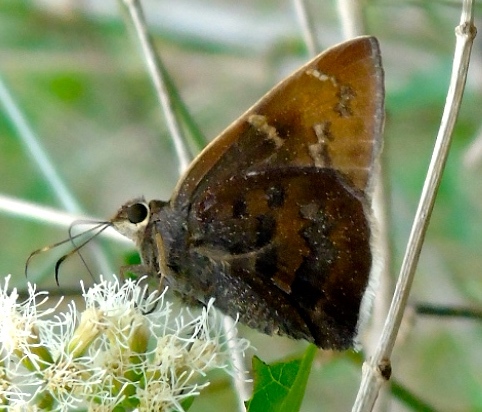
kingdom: Animalia
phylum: Arthropoda
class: Insecta
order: Lepidoptera
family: Hesperiidae
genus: Achalarus
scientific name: Achalarus Murgaria albociliatus
